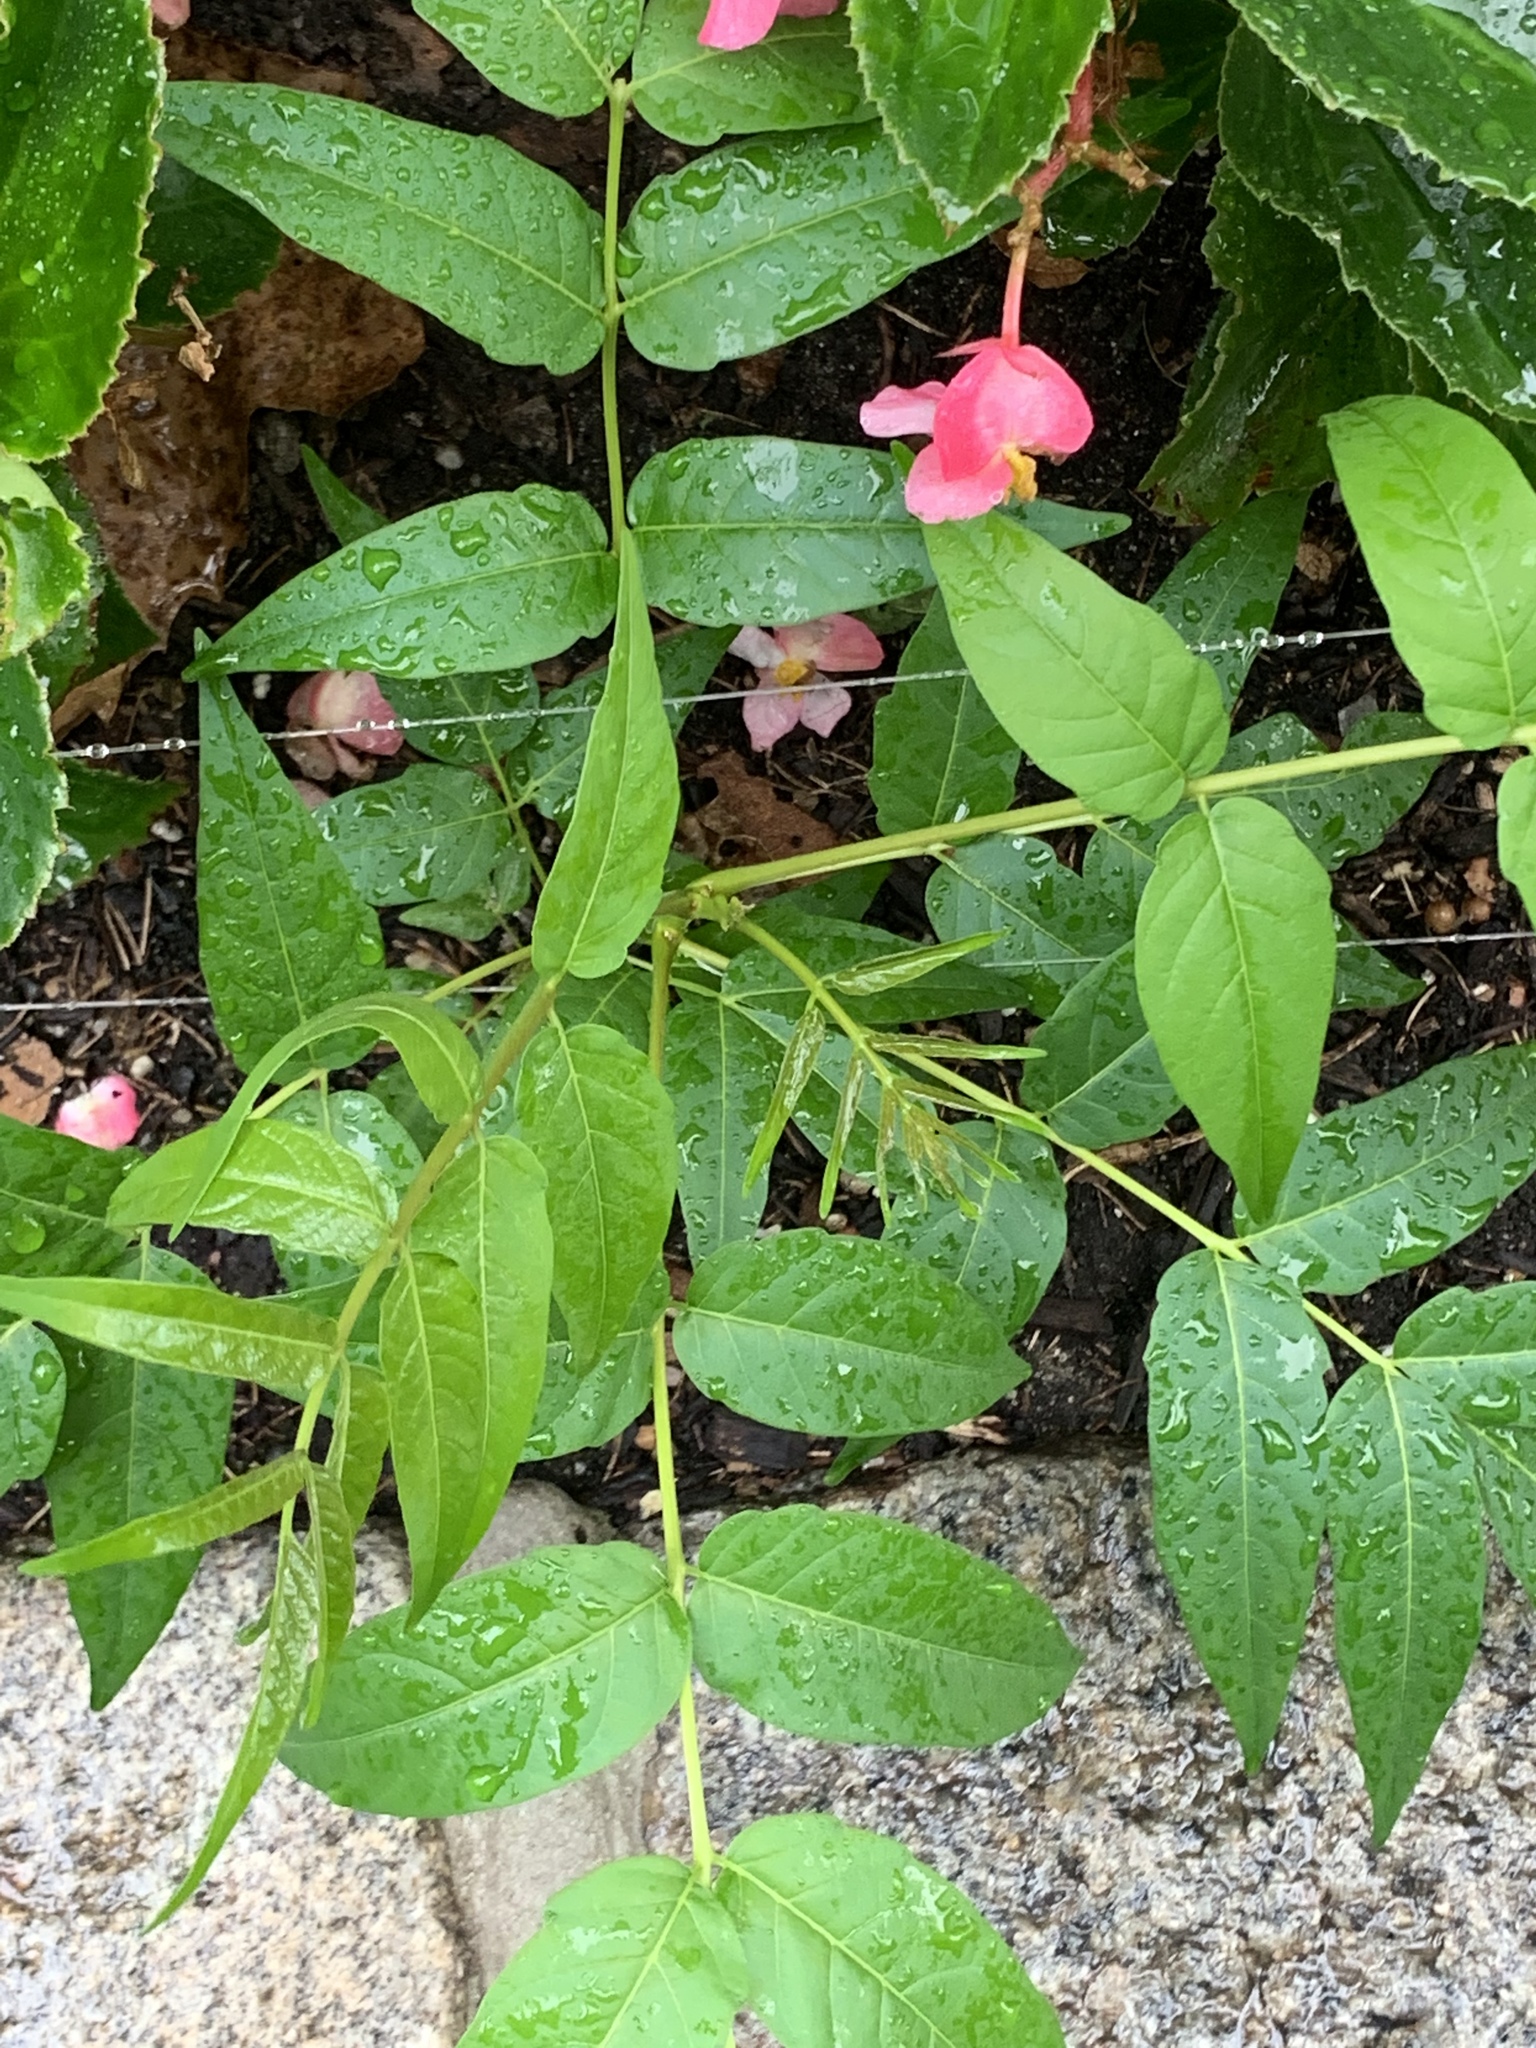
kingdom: Plantae
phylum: Tracheophyta
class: Magnoliopsida
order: Sapindales
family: Simaroubaceae
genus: Ailanthus
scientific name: Ailanthus altissima
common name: Tree-of-heaven
